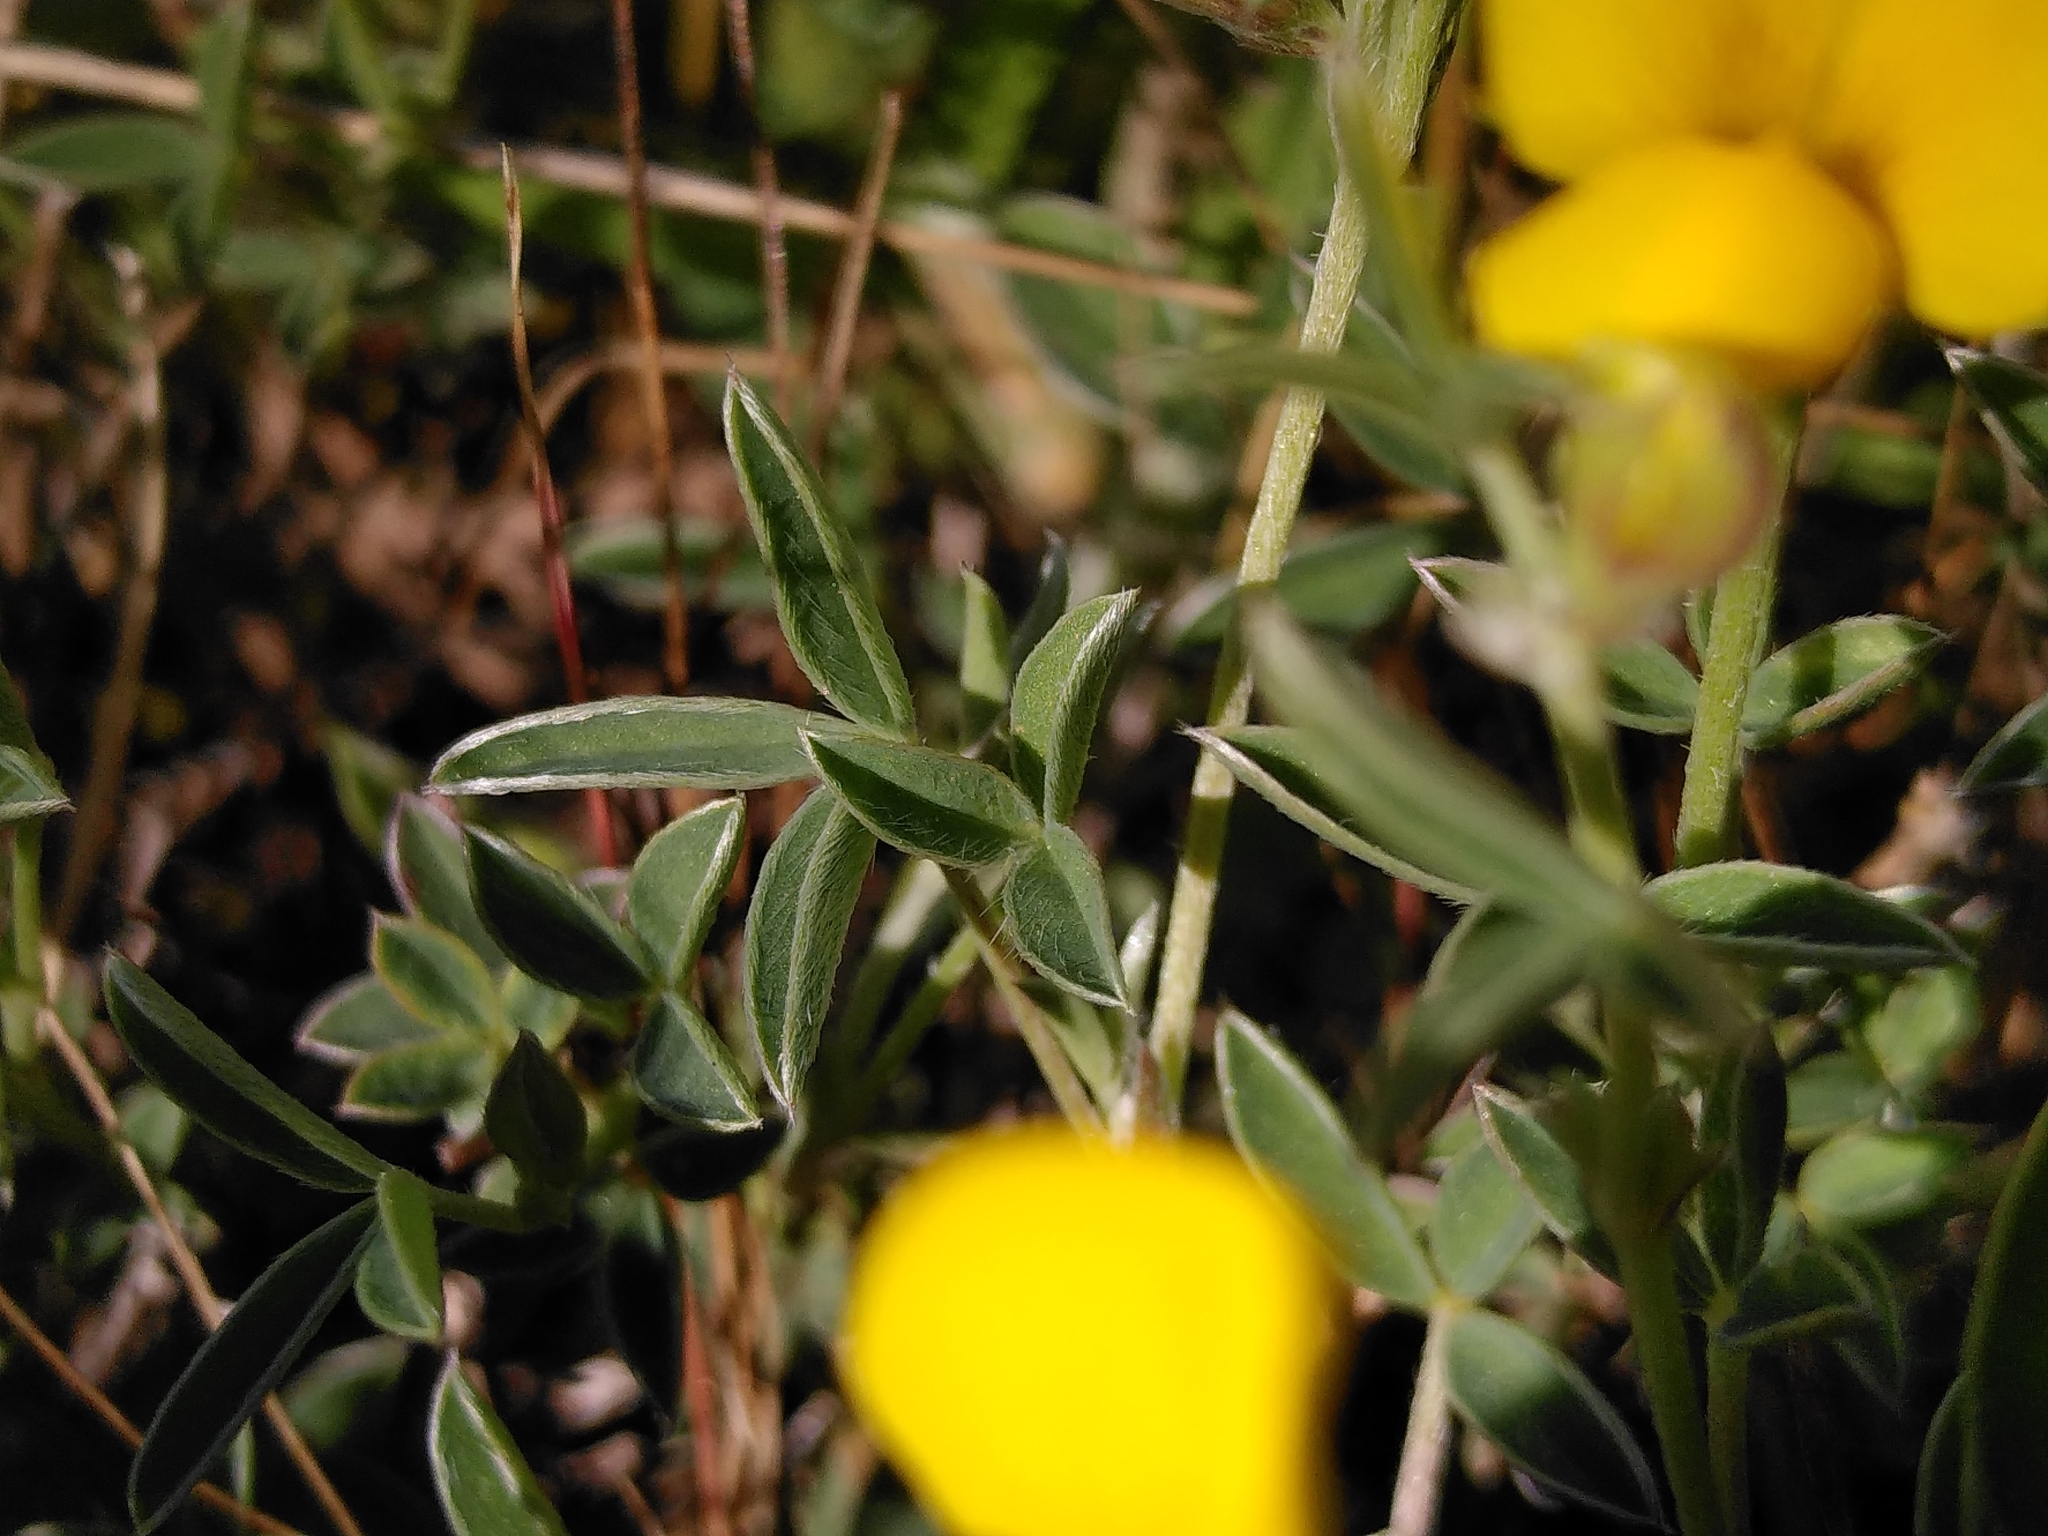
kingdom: Plantae
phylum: Tracheophyta
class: Magnoliopsida
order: Fabales
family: Fabaceae
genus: Argyrolobium
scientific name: Argyrolobium zanonii
